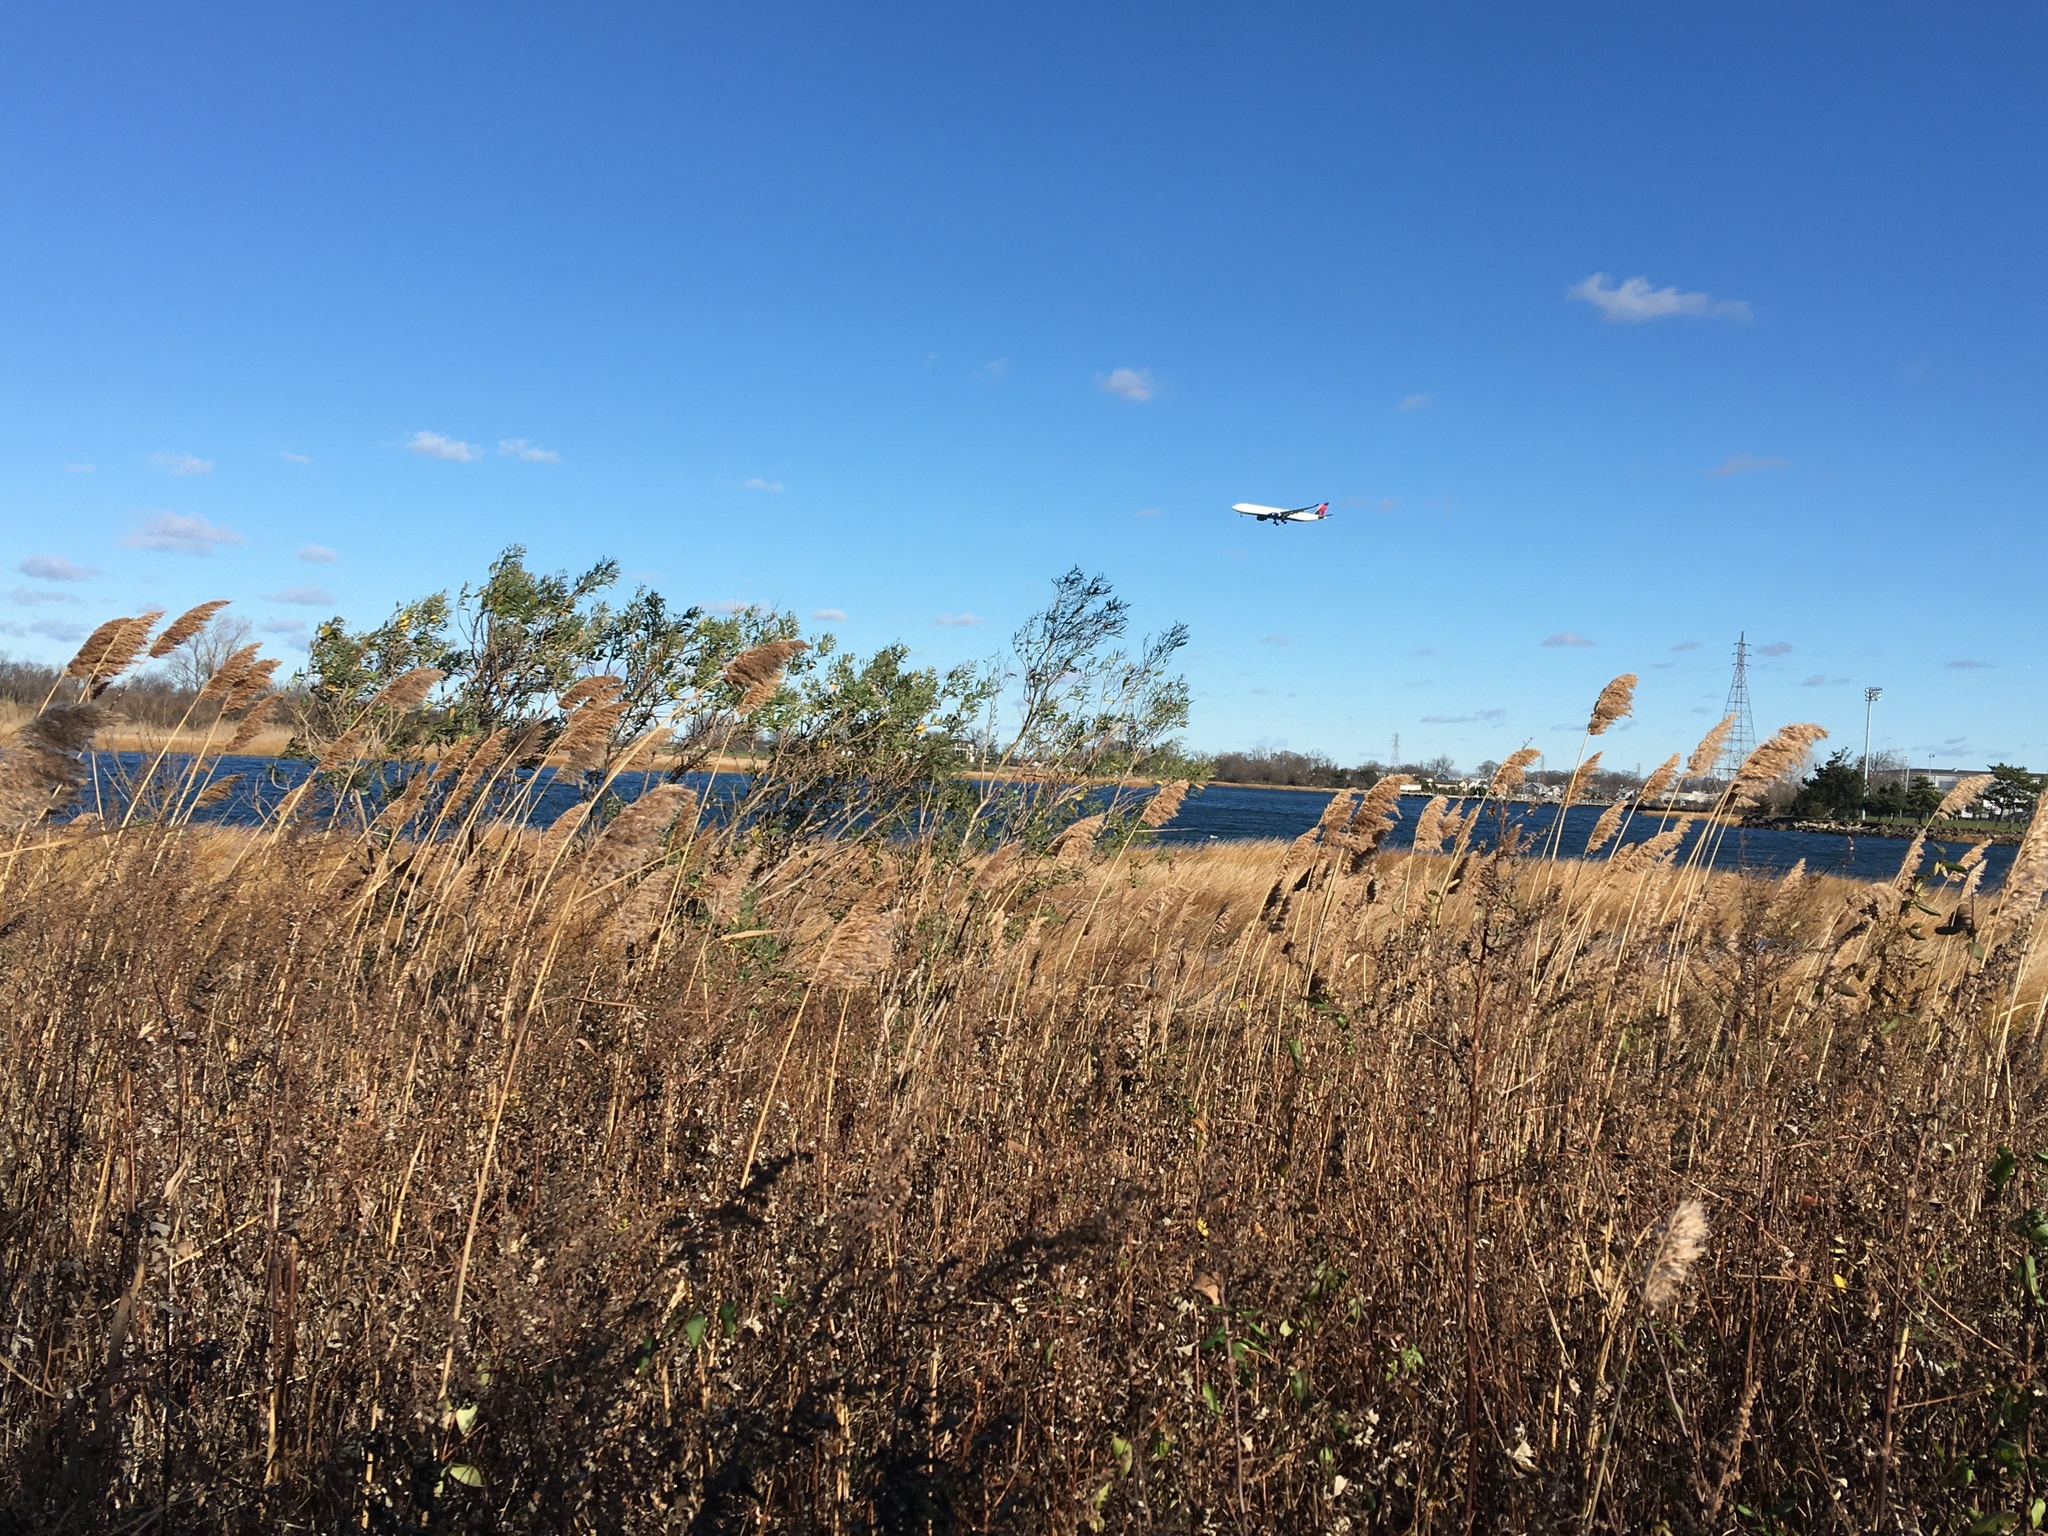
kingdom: Plantae
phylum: Tracheophyta
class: Magnoliopsida
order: Asterales
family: Asteraceae
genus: Baccharis
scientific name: Baccharis halimifolia
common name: Eastern baccharis
